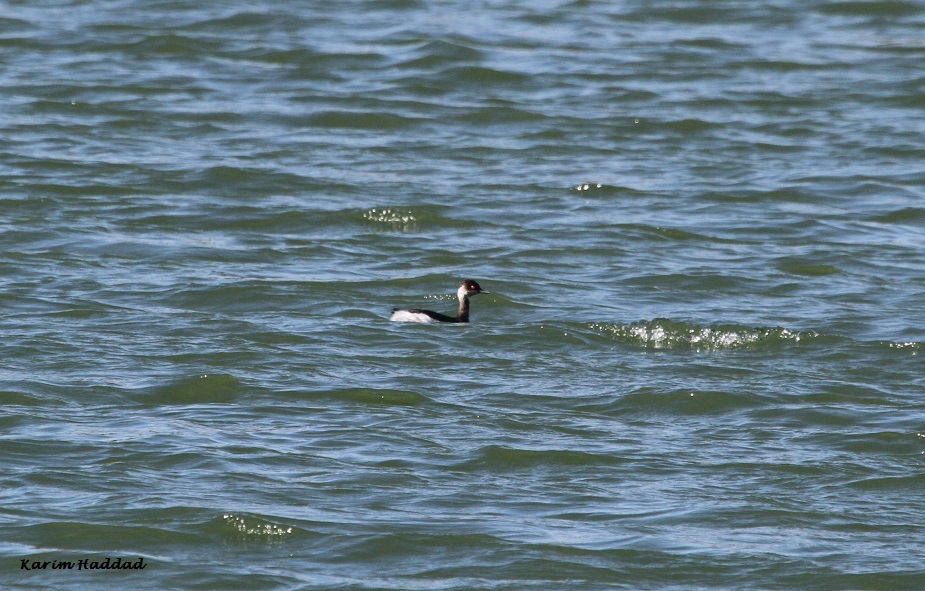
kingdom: Animalia
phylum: Chordata
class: Aves
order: Podicipediformes
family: Podicipedidae
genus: Podiceps
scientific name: Podiceps nigricollis
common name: Black-necked grebe
